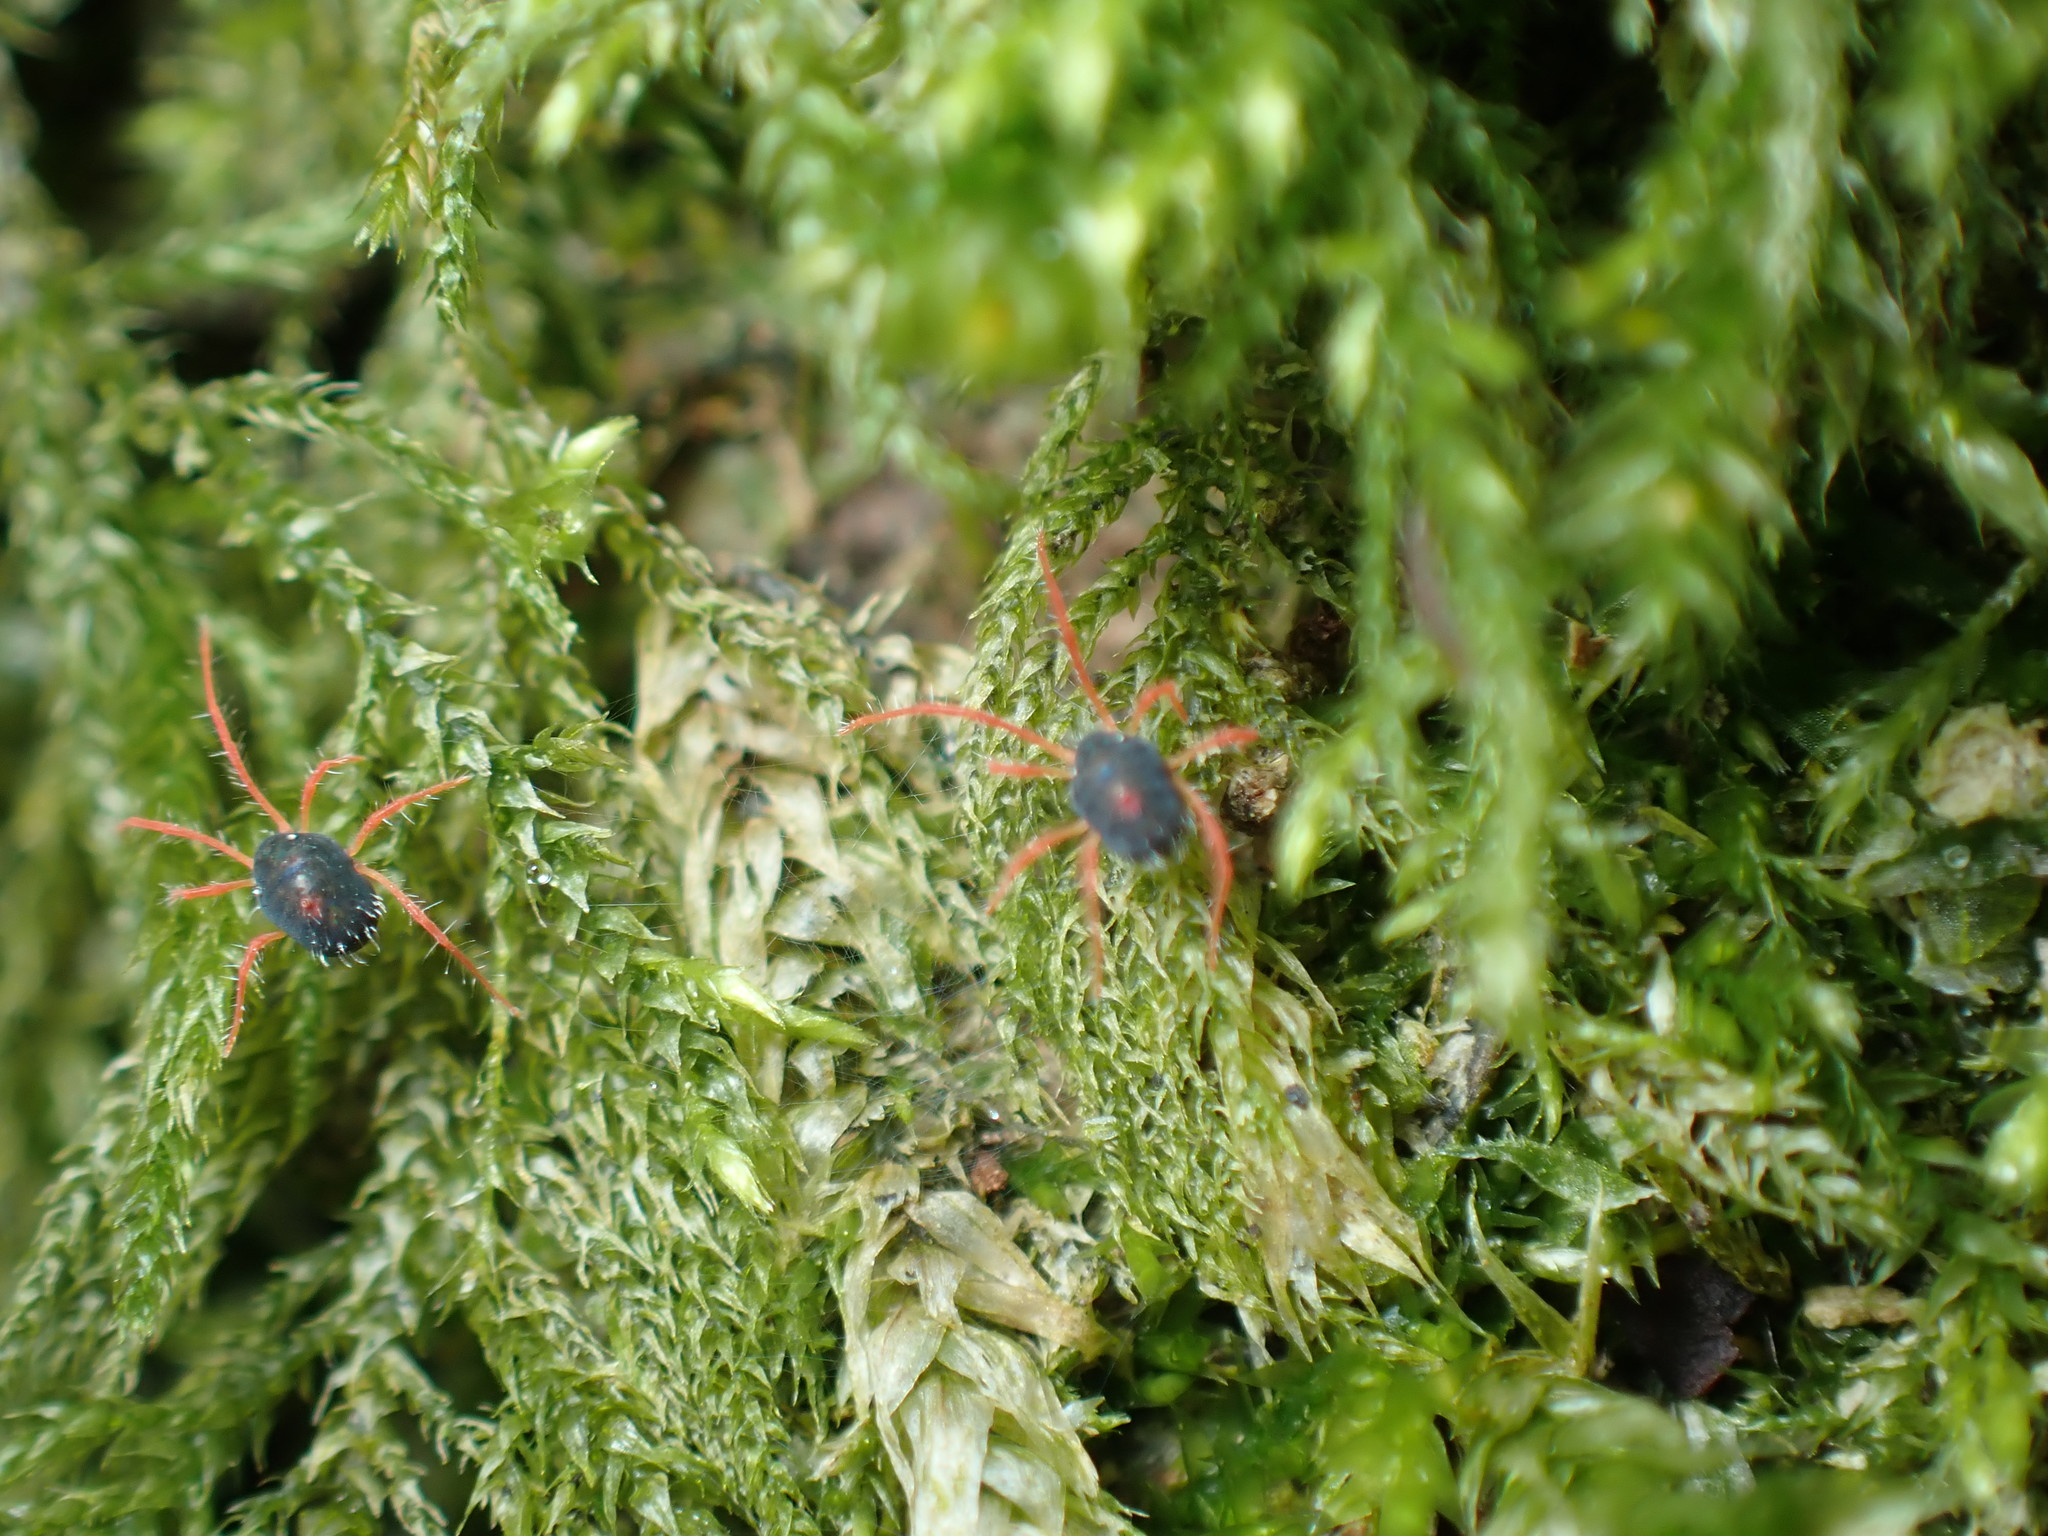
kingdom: Animalia
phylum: Arthropoda
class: Arachnida
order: Trombidiformes
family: Penthaleidae
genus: Linopenthaleus
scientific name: Linopenthaleus irki
